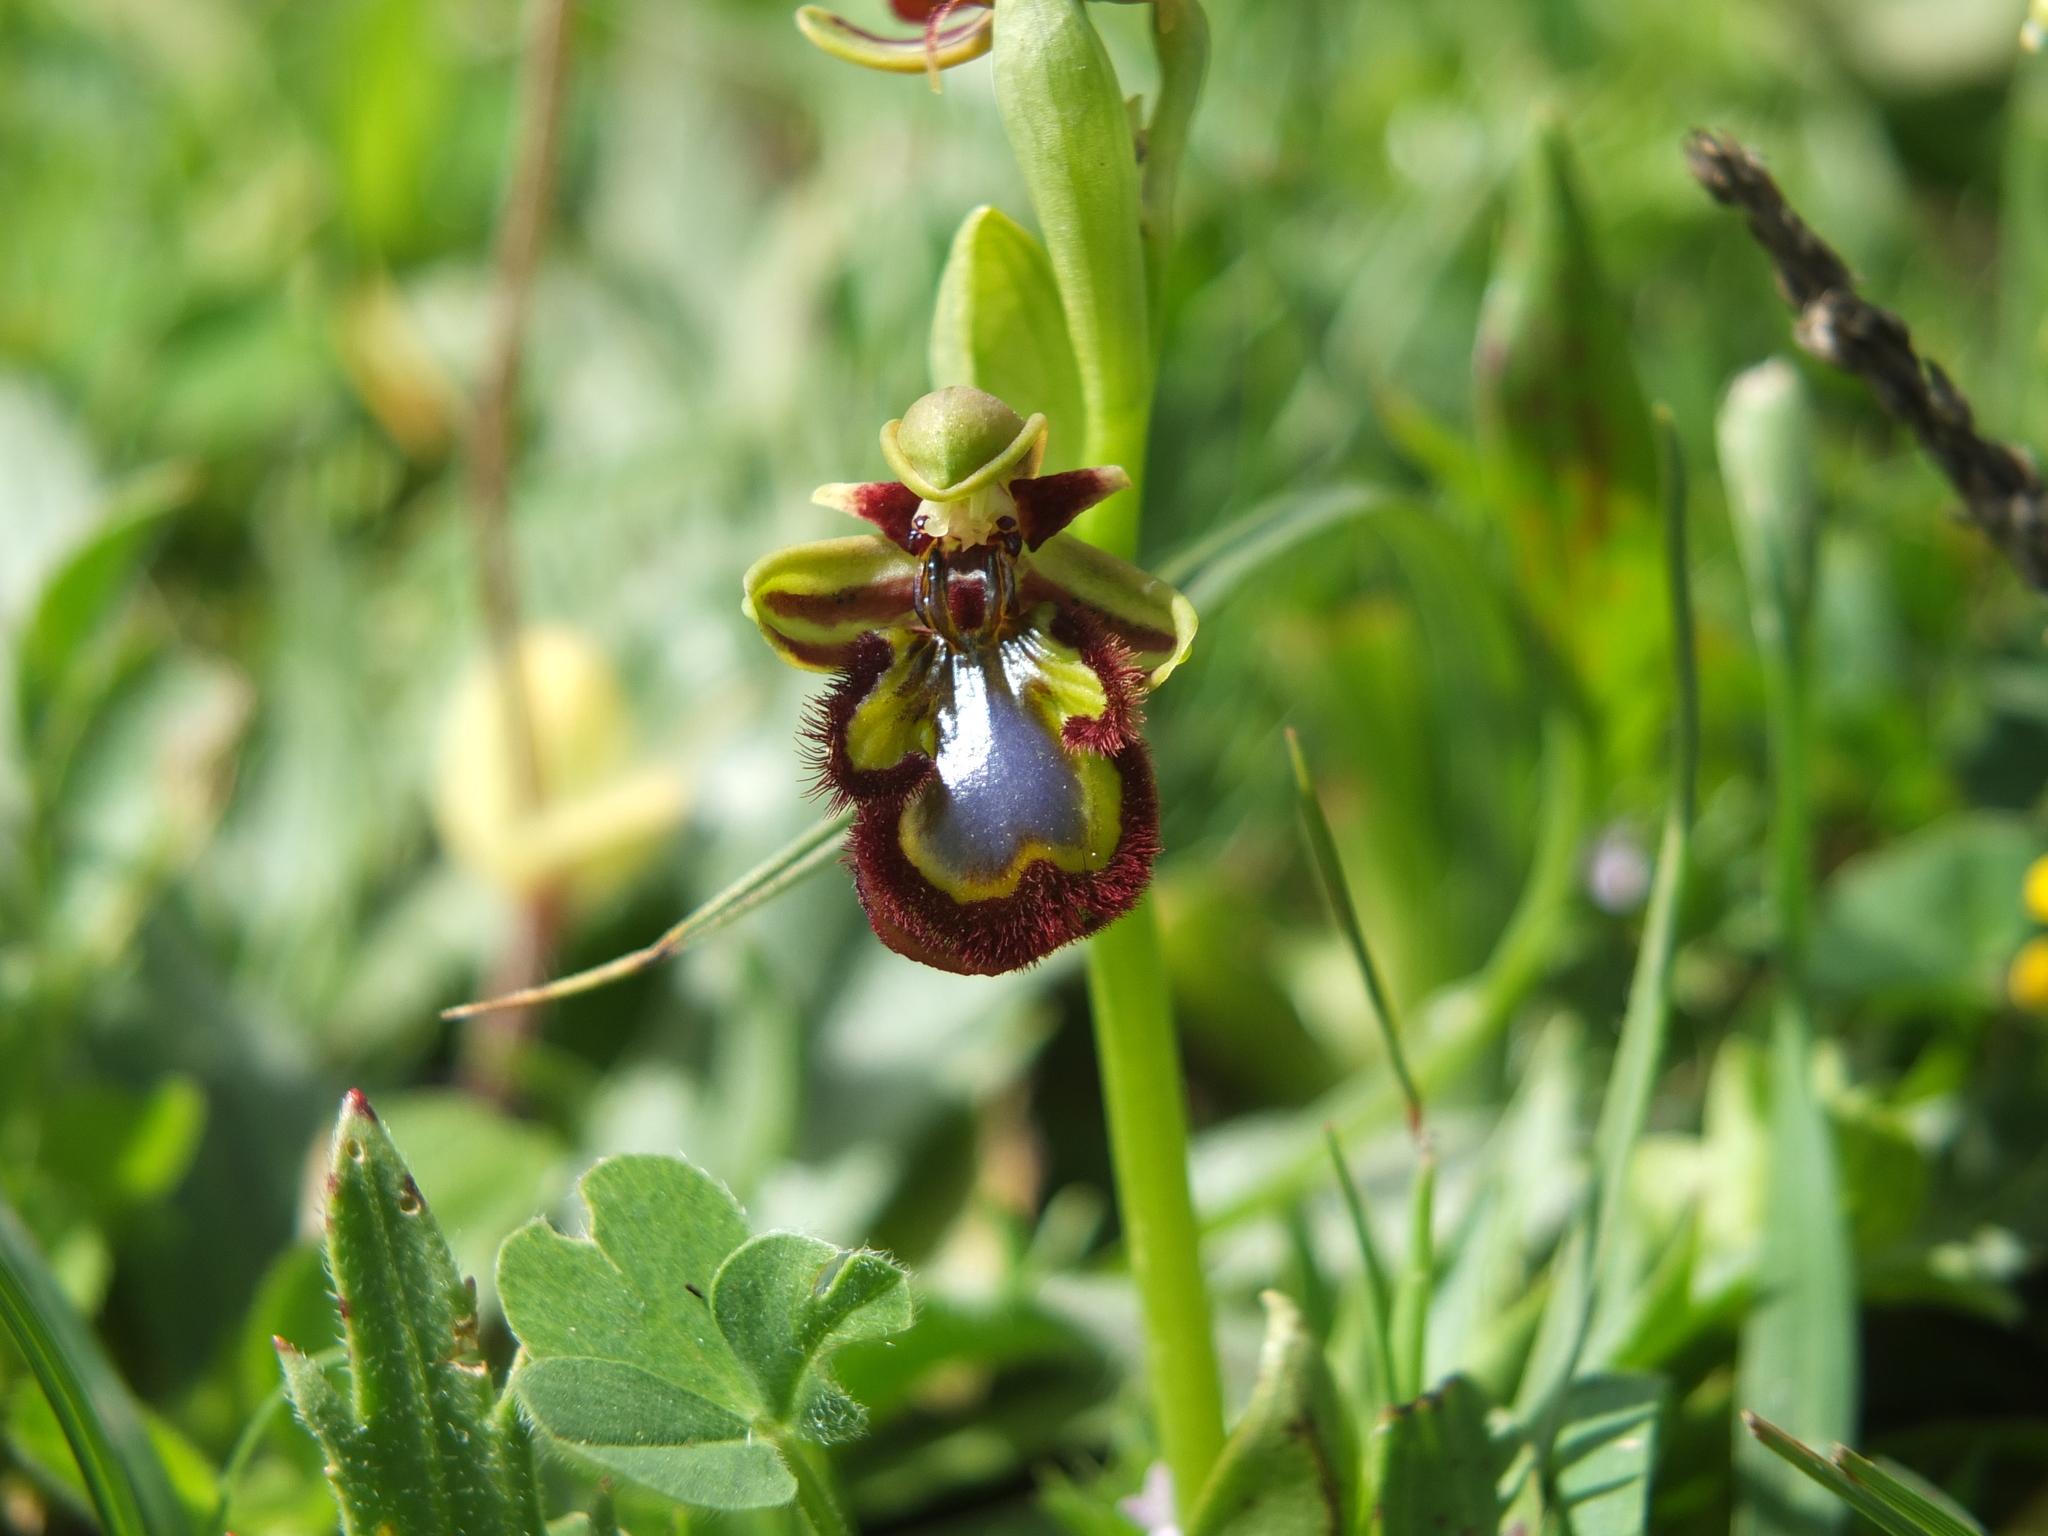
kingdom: Plantae
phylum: Tracheophyta
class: Liliopsida
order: Asparagales
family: Orchidaceae
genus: Ophrys
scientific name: Ophrys speculum
